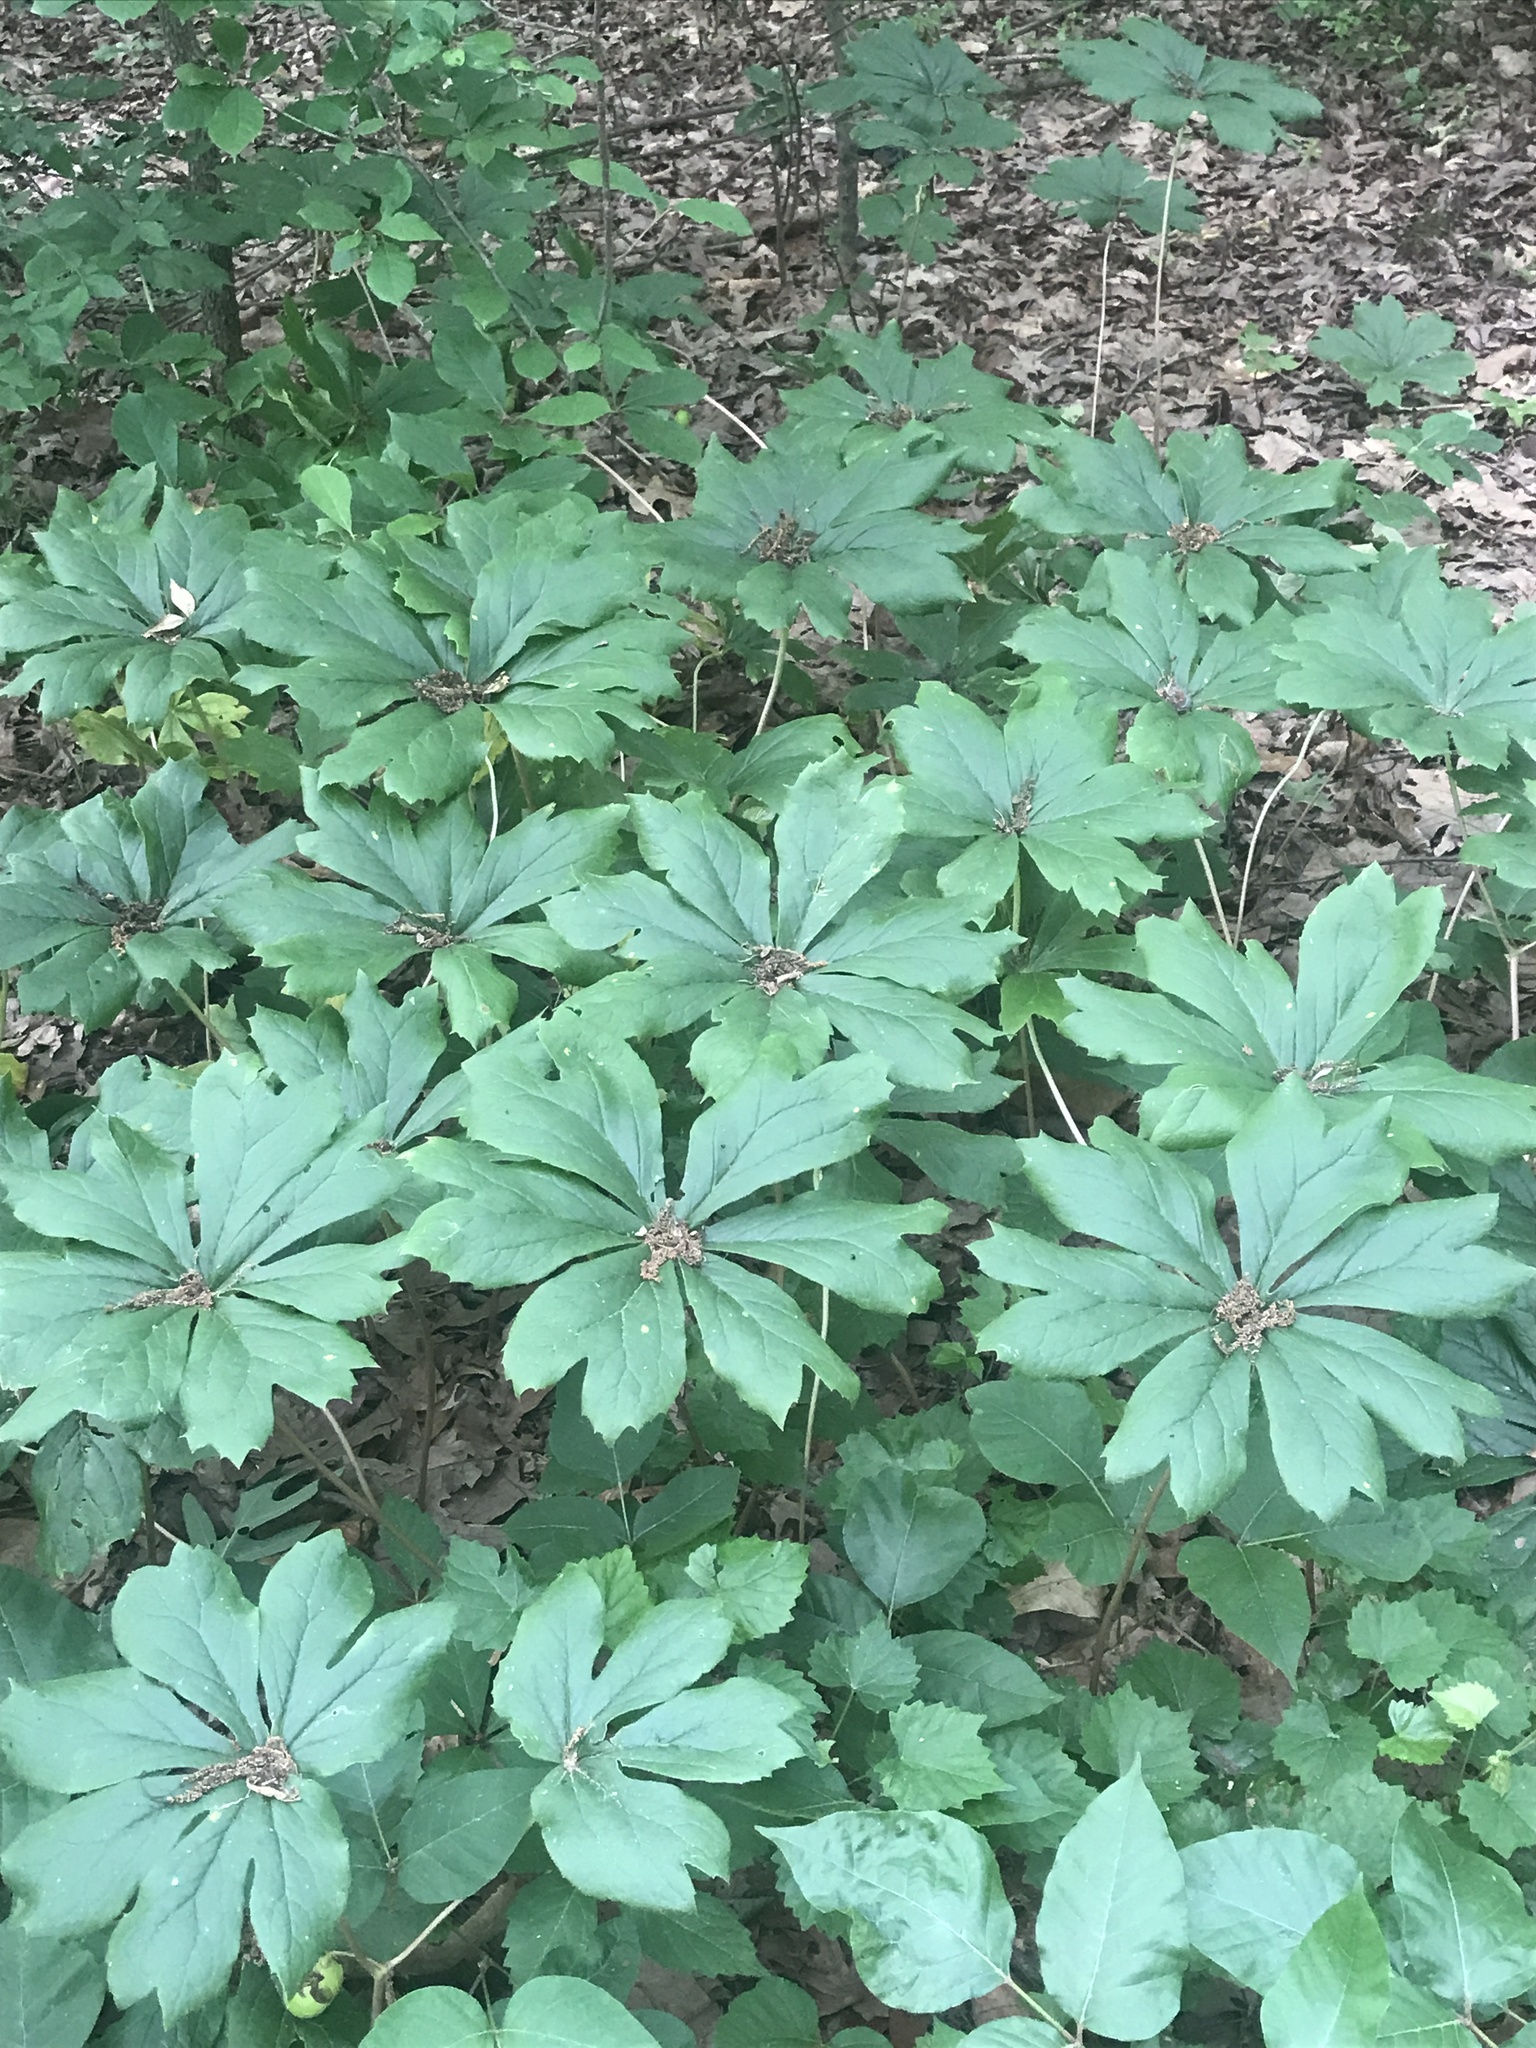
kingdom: Plantae
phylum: Tracheophyta
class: Magnoliopsida
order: Ranunculales
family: Berberidaceae
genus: Podophyllum
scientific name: Podophyllum peltatum
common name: Wild mandrake
